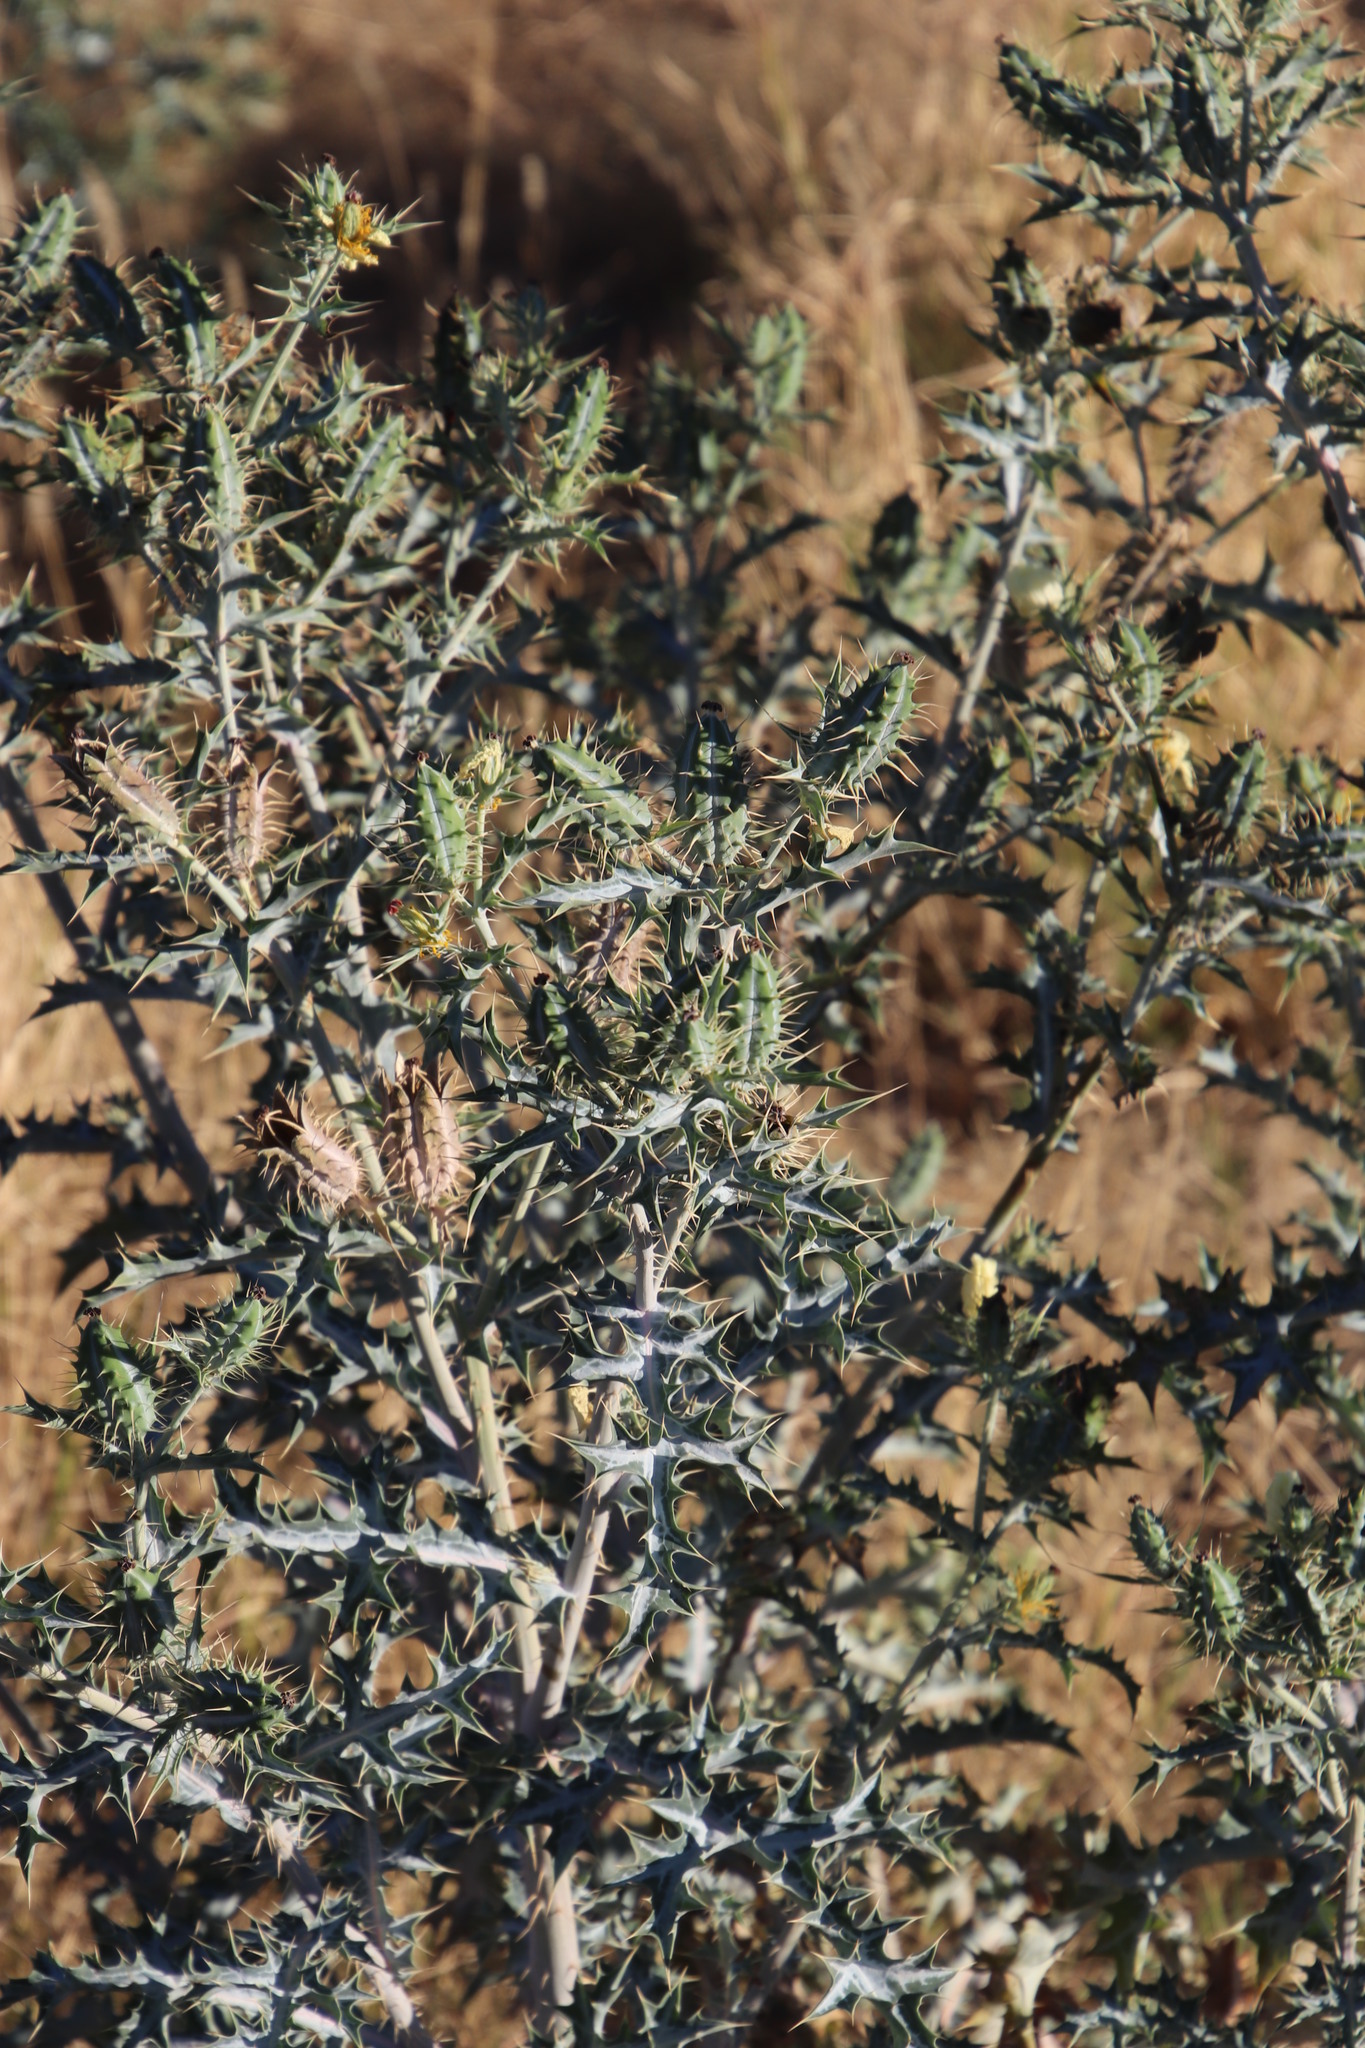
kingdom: Plantae
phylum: Tracheophyta
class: Magnoliopsida
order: Ranunculales
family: Papaveraceae
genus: Argemone
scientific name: Argemone ochroleuca
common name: White-flower mexican-poppy
